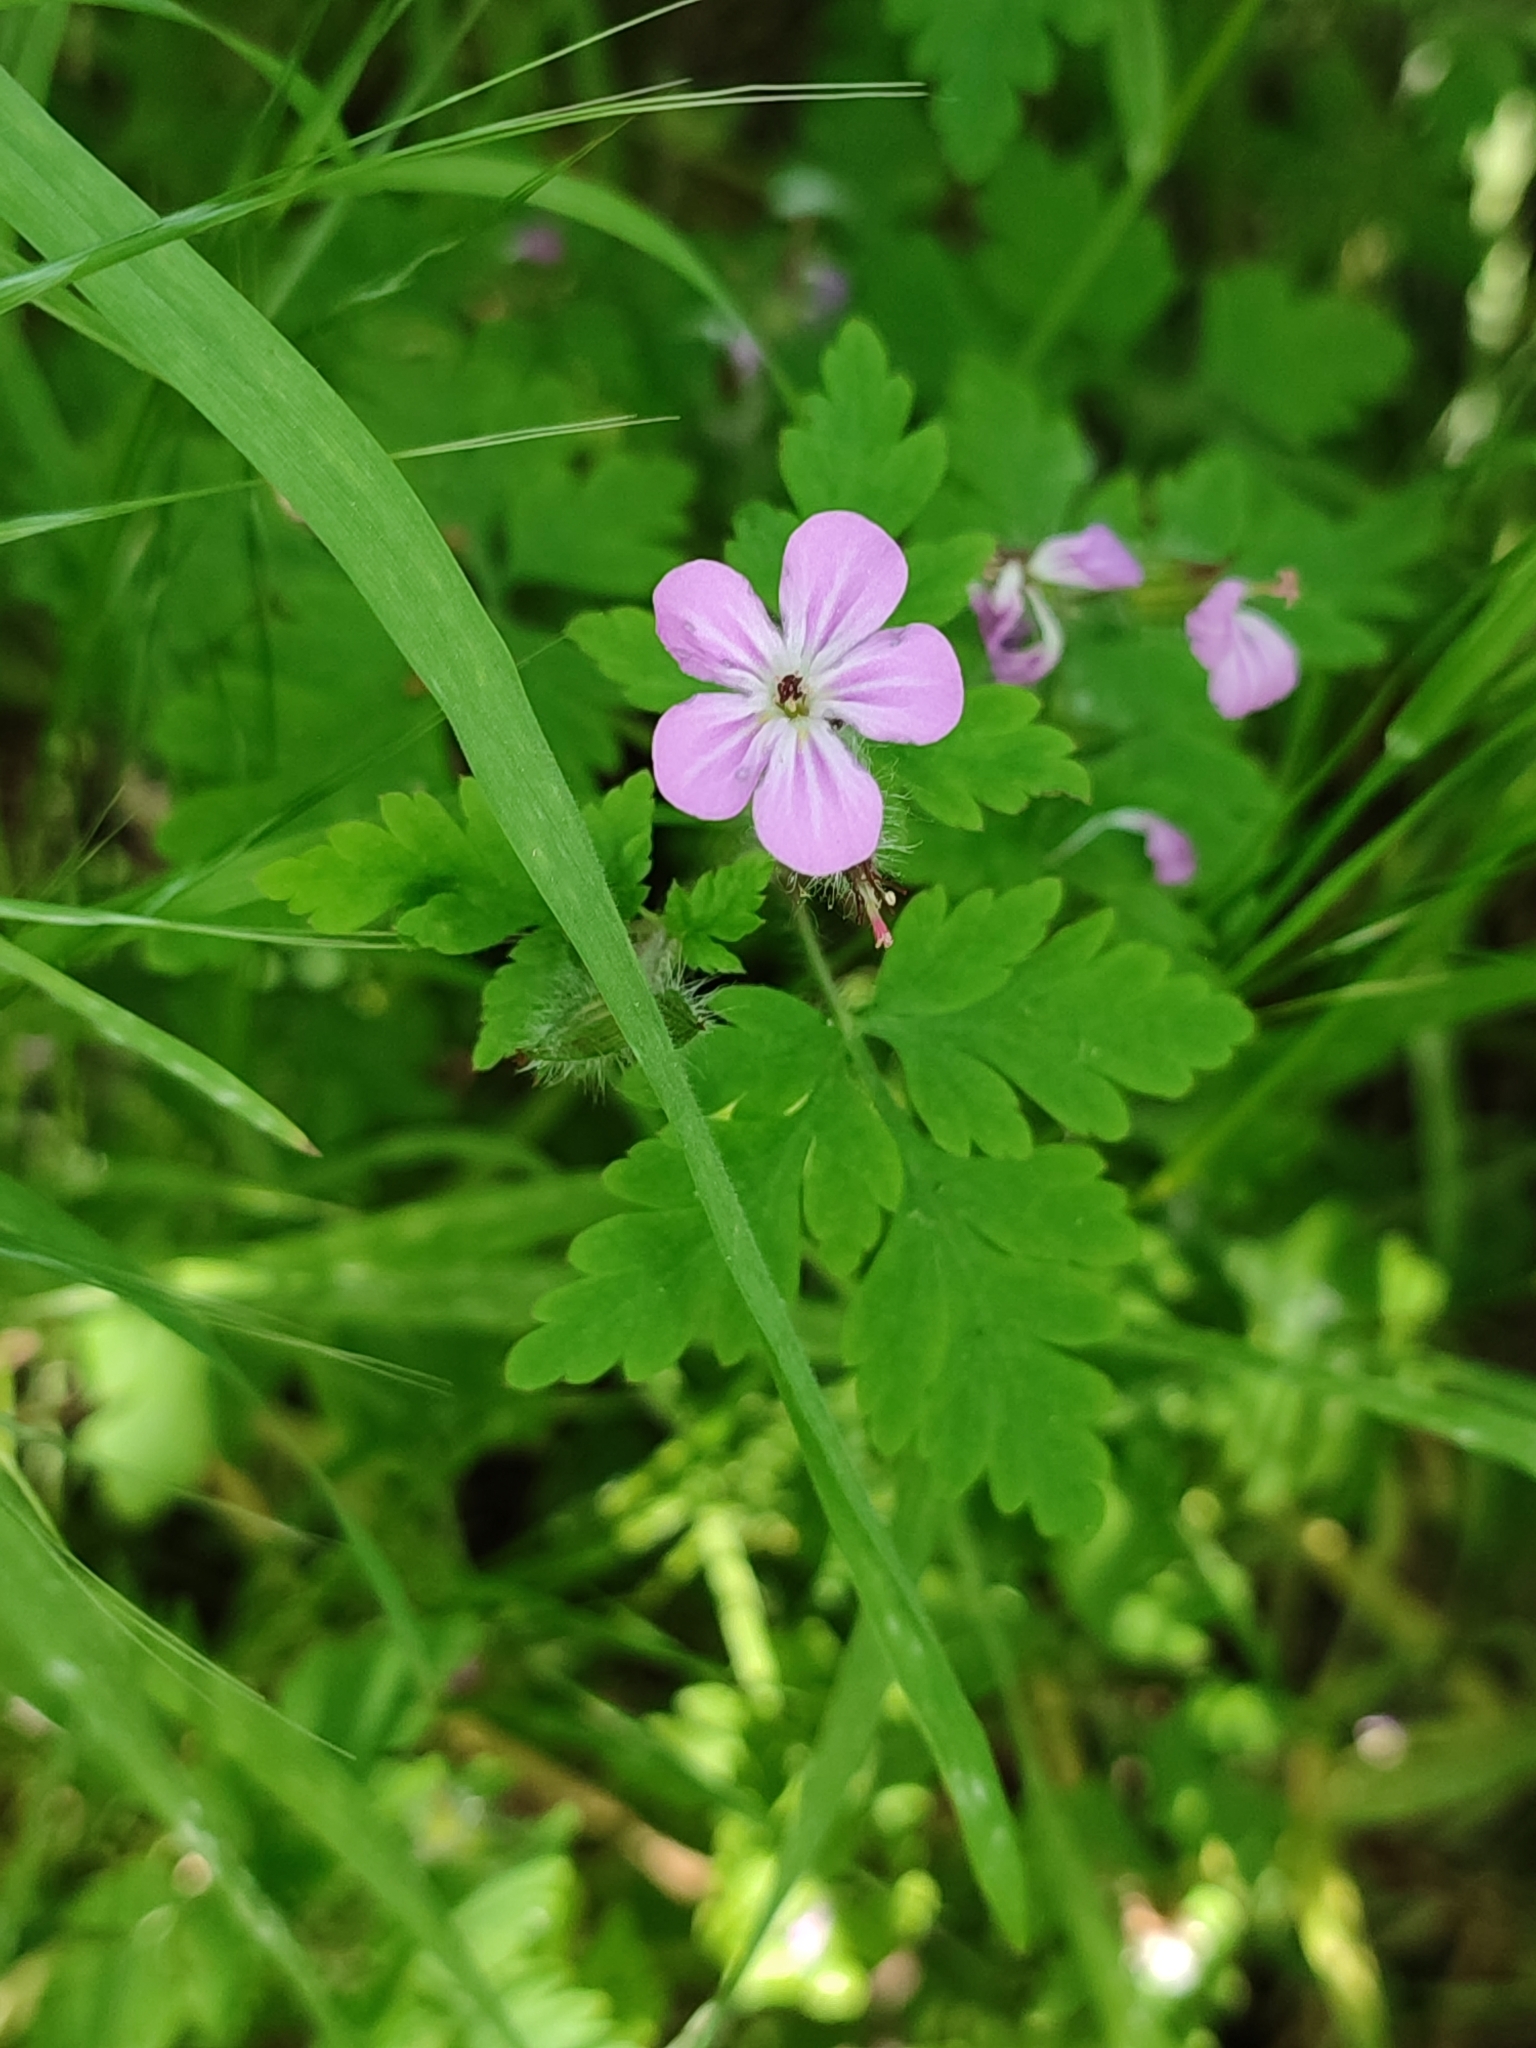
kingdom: Plantae
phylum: Tracheophyta
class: Magnoliopsida
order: Geraniales
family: Geraniaceae
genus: Geranium
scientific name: Geranium robertianum
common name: Herb-robert
